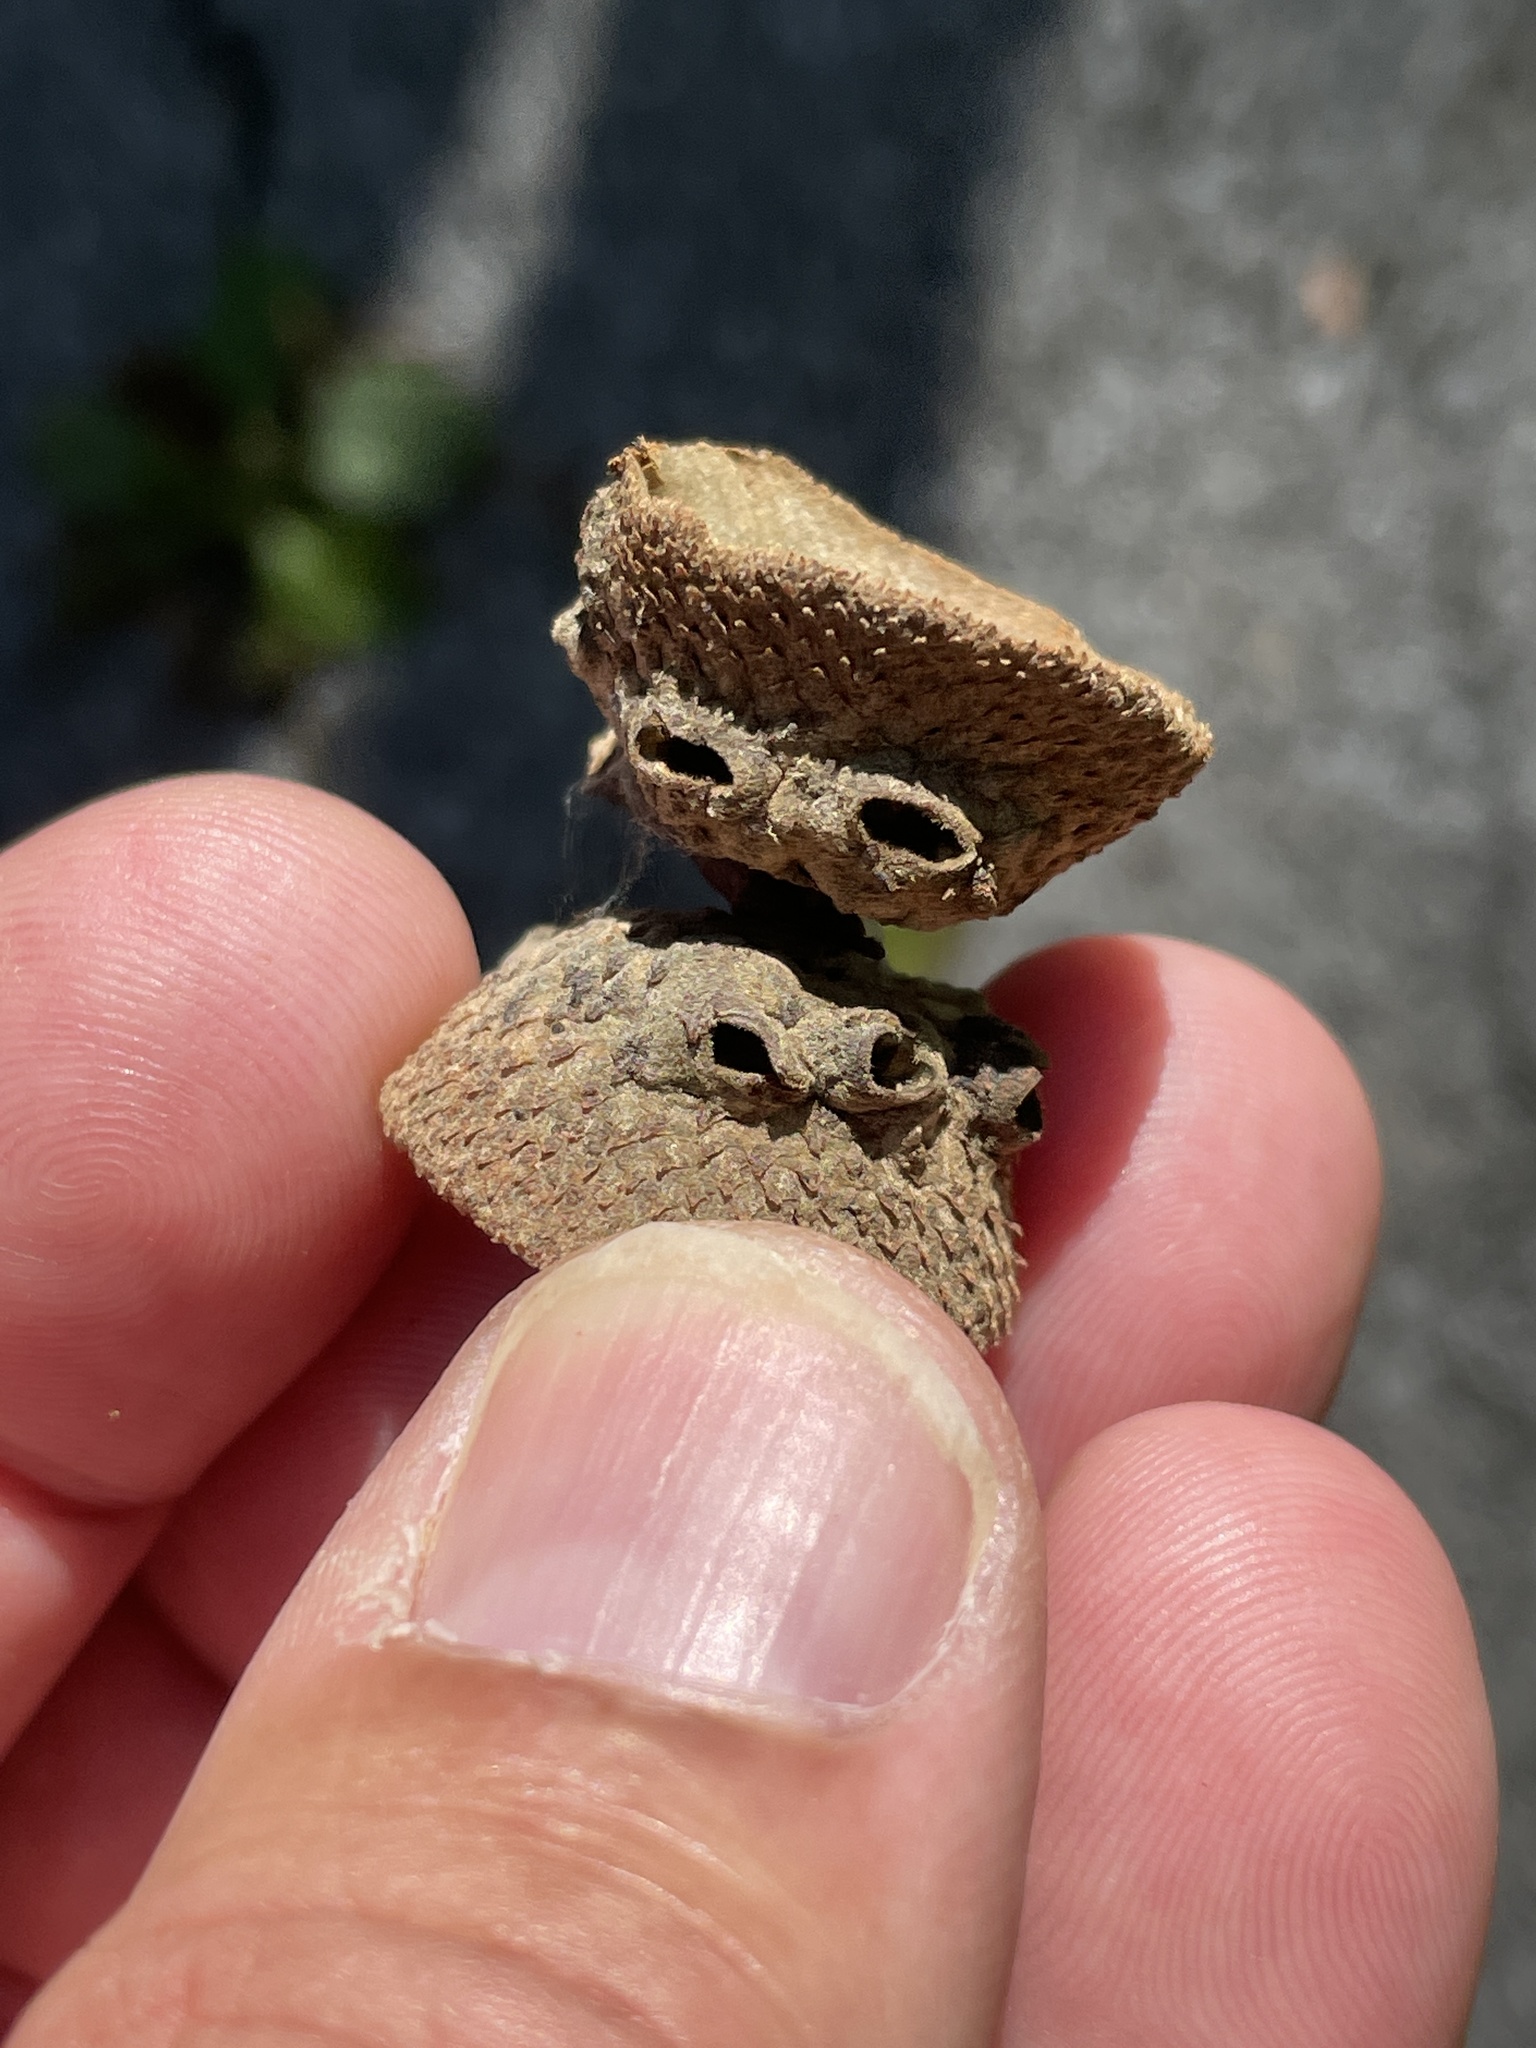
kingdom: Animalia
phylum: Arthropoda
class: Insecta
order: Hymenoptera
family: Cynipidae
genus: Callirhytis
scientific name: Callirhytis glandium
